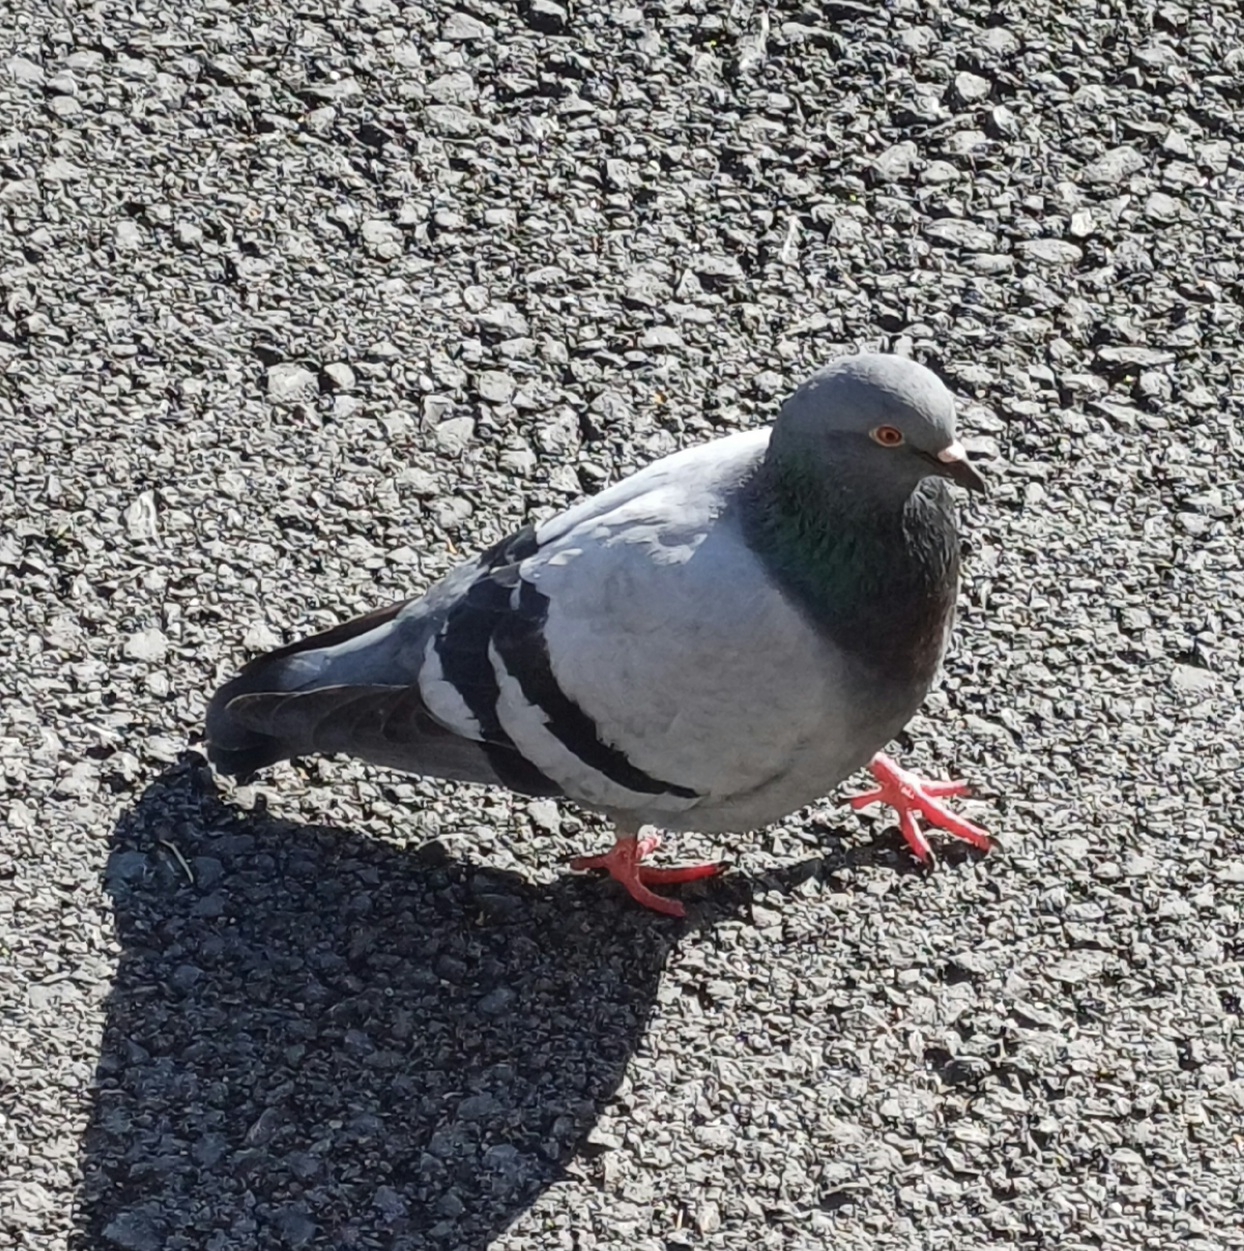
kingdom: Animalia
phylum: Chordata
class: Aves
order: Columbiformes
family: Columbidae
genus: Columba
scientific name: Columba livia
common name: Rock pigeon
